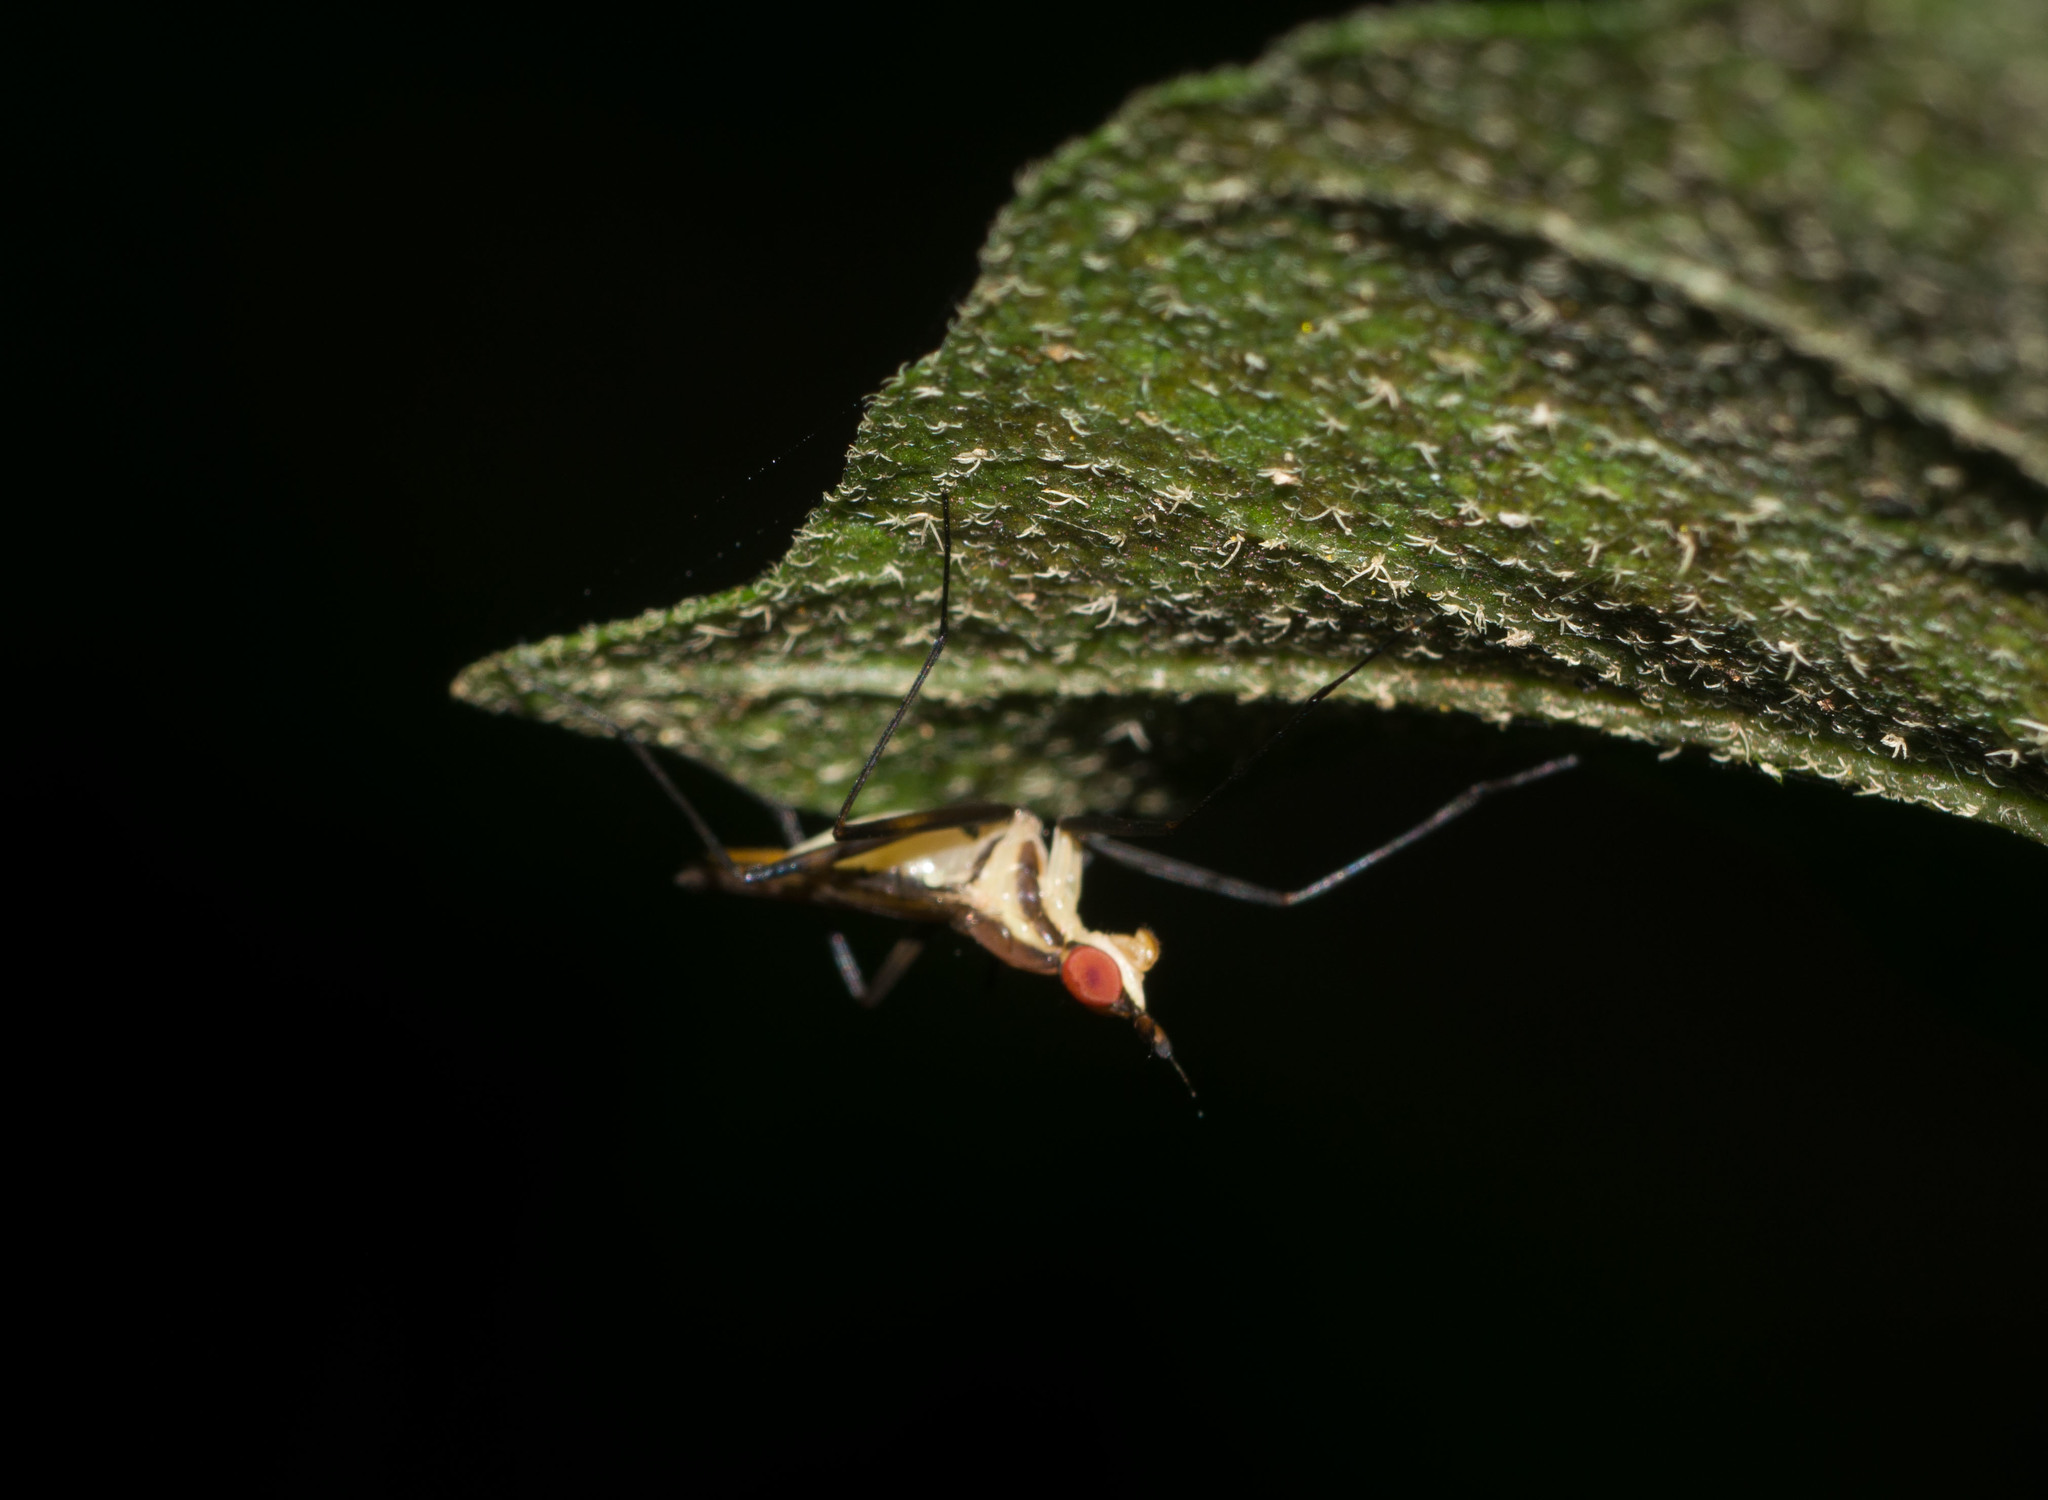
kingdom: Animalia
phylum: Arthropoda
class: Insecta
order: Diptera
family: Neriidae
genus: Telostylinus
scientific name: Telostylinus lineolatus
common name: Banana stalk fly
